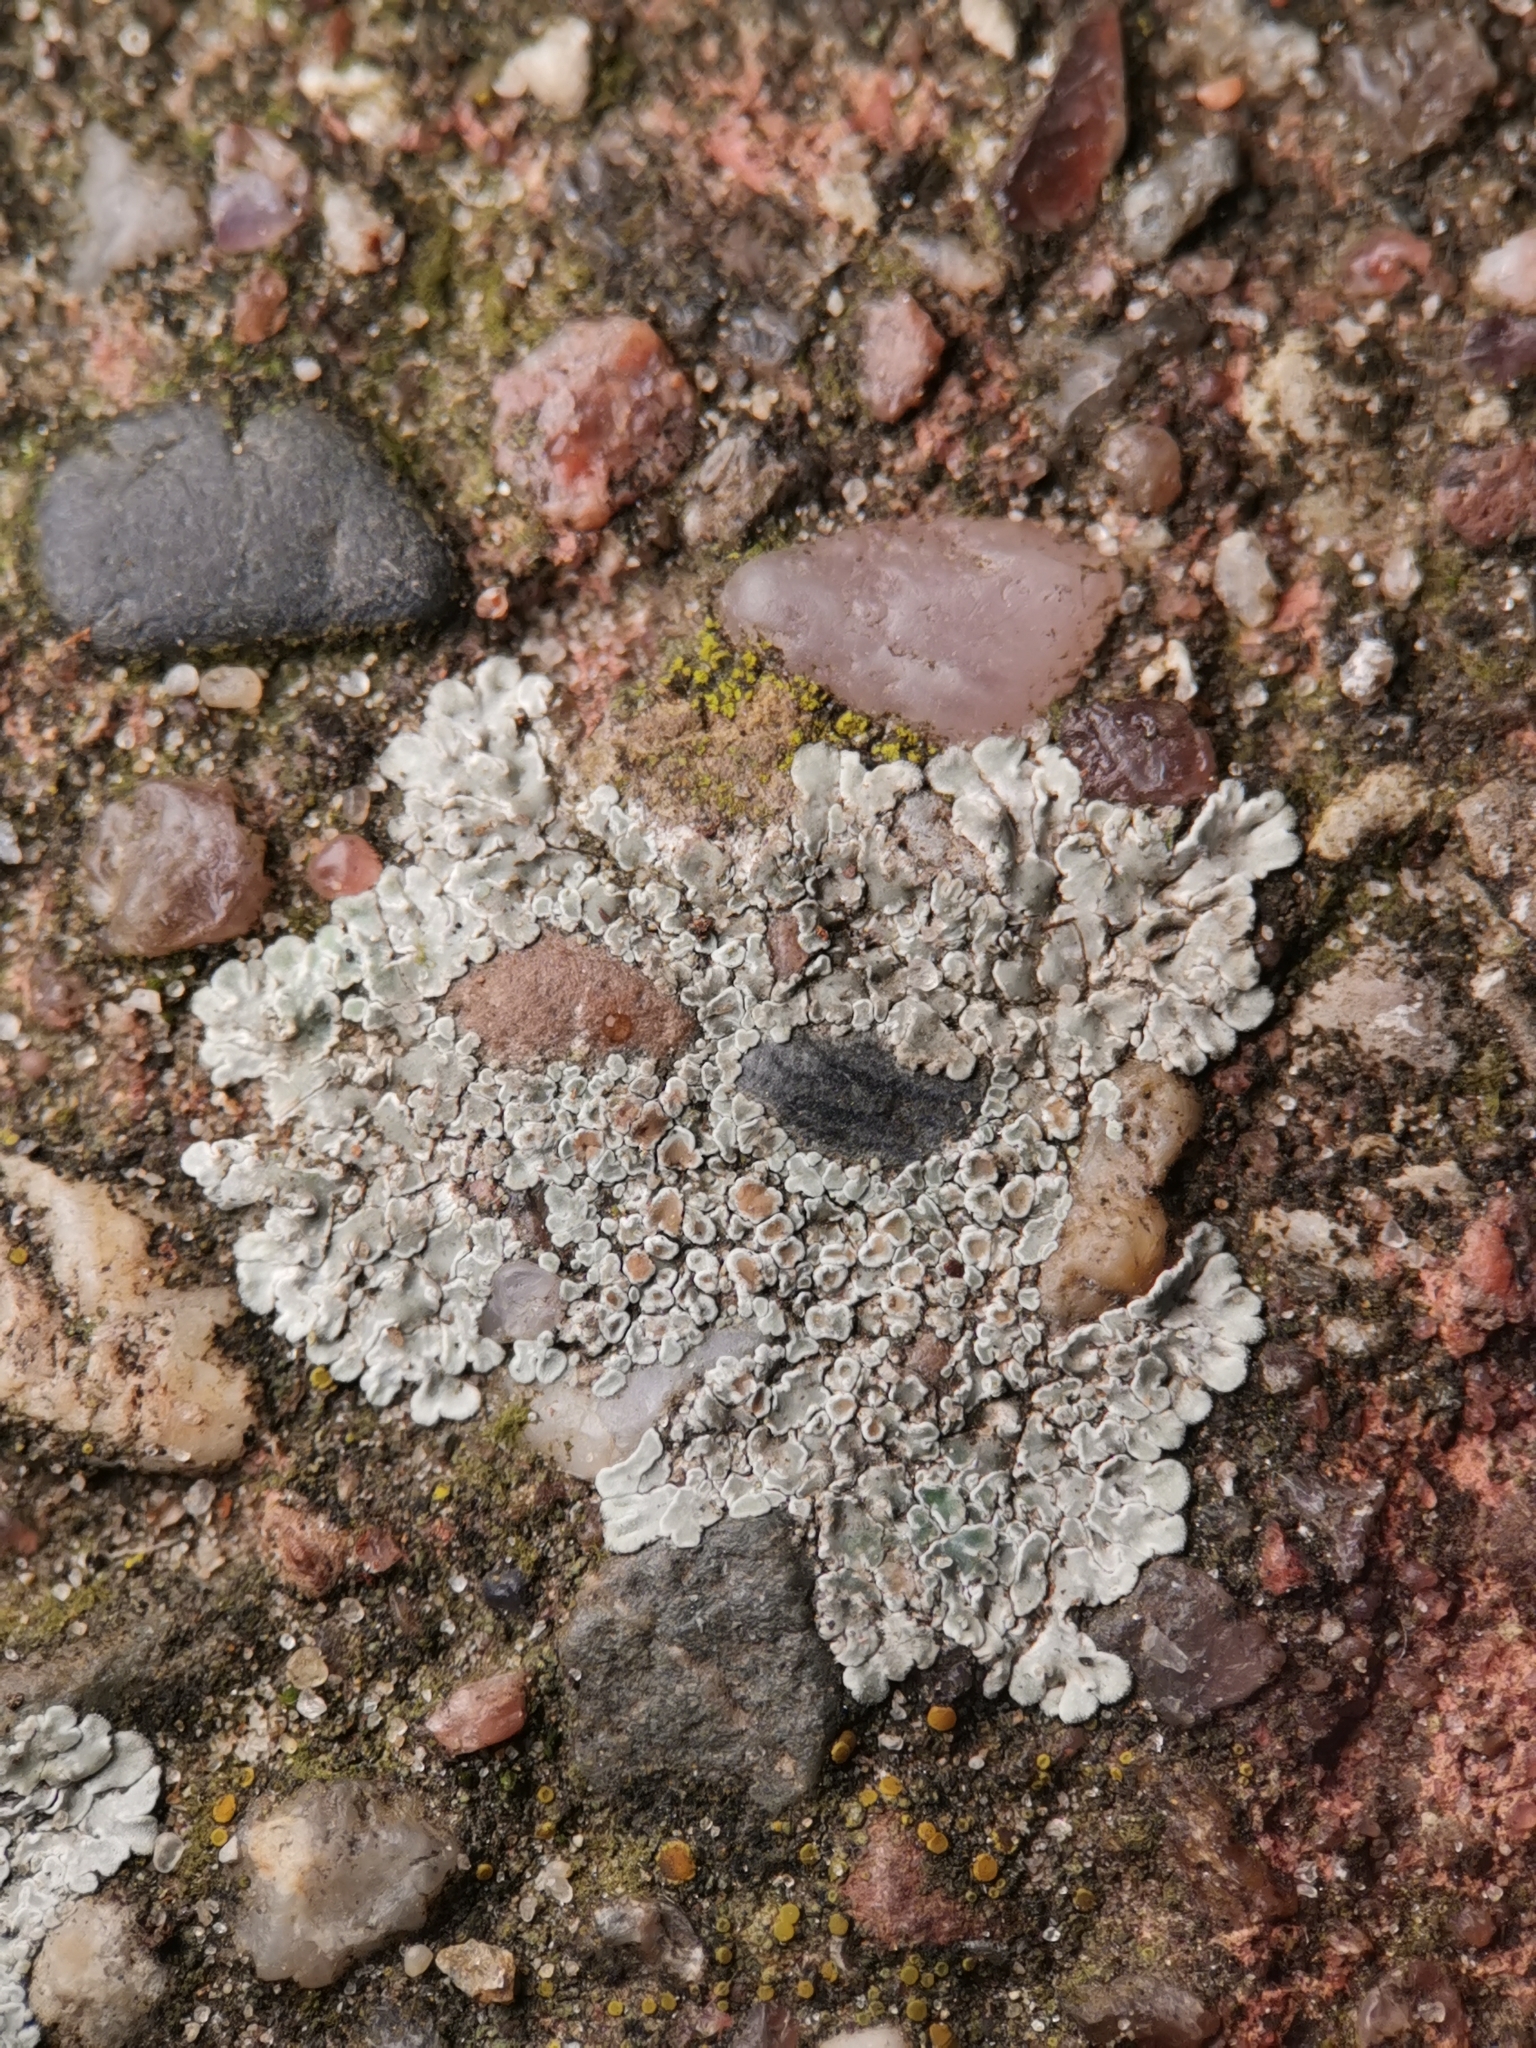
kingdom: Fungi
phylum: Ascomycota
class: Lecanoromycetes
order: Lecanorales
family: Lecanoraceae
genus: Protoparmeliopsis
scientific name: Protoparmeliopsis muralis
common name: Stonewall rim lichen
